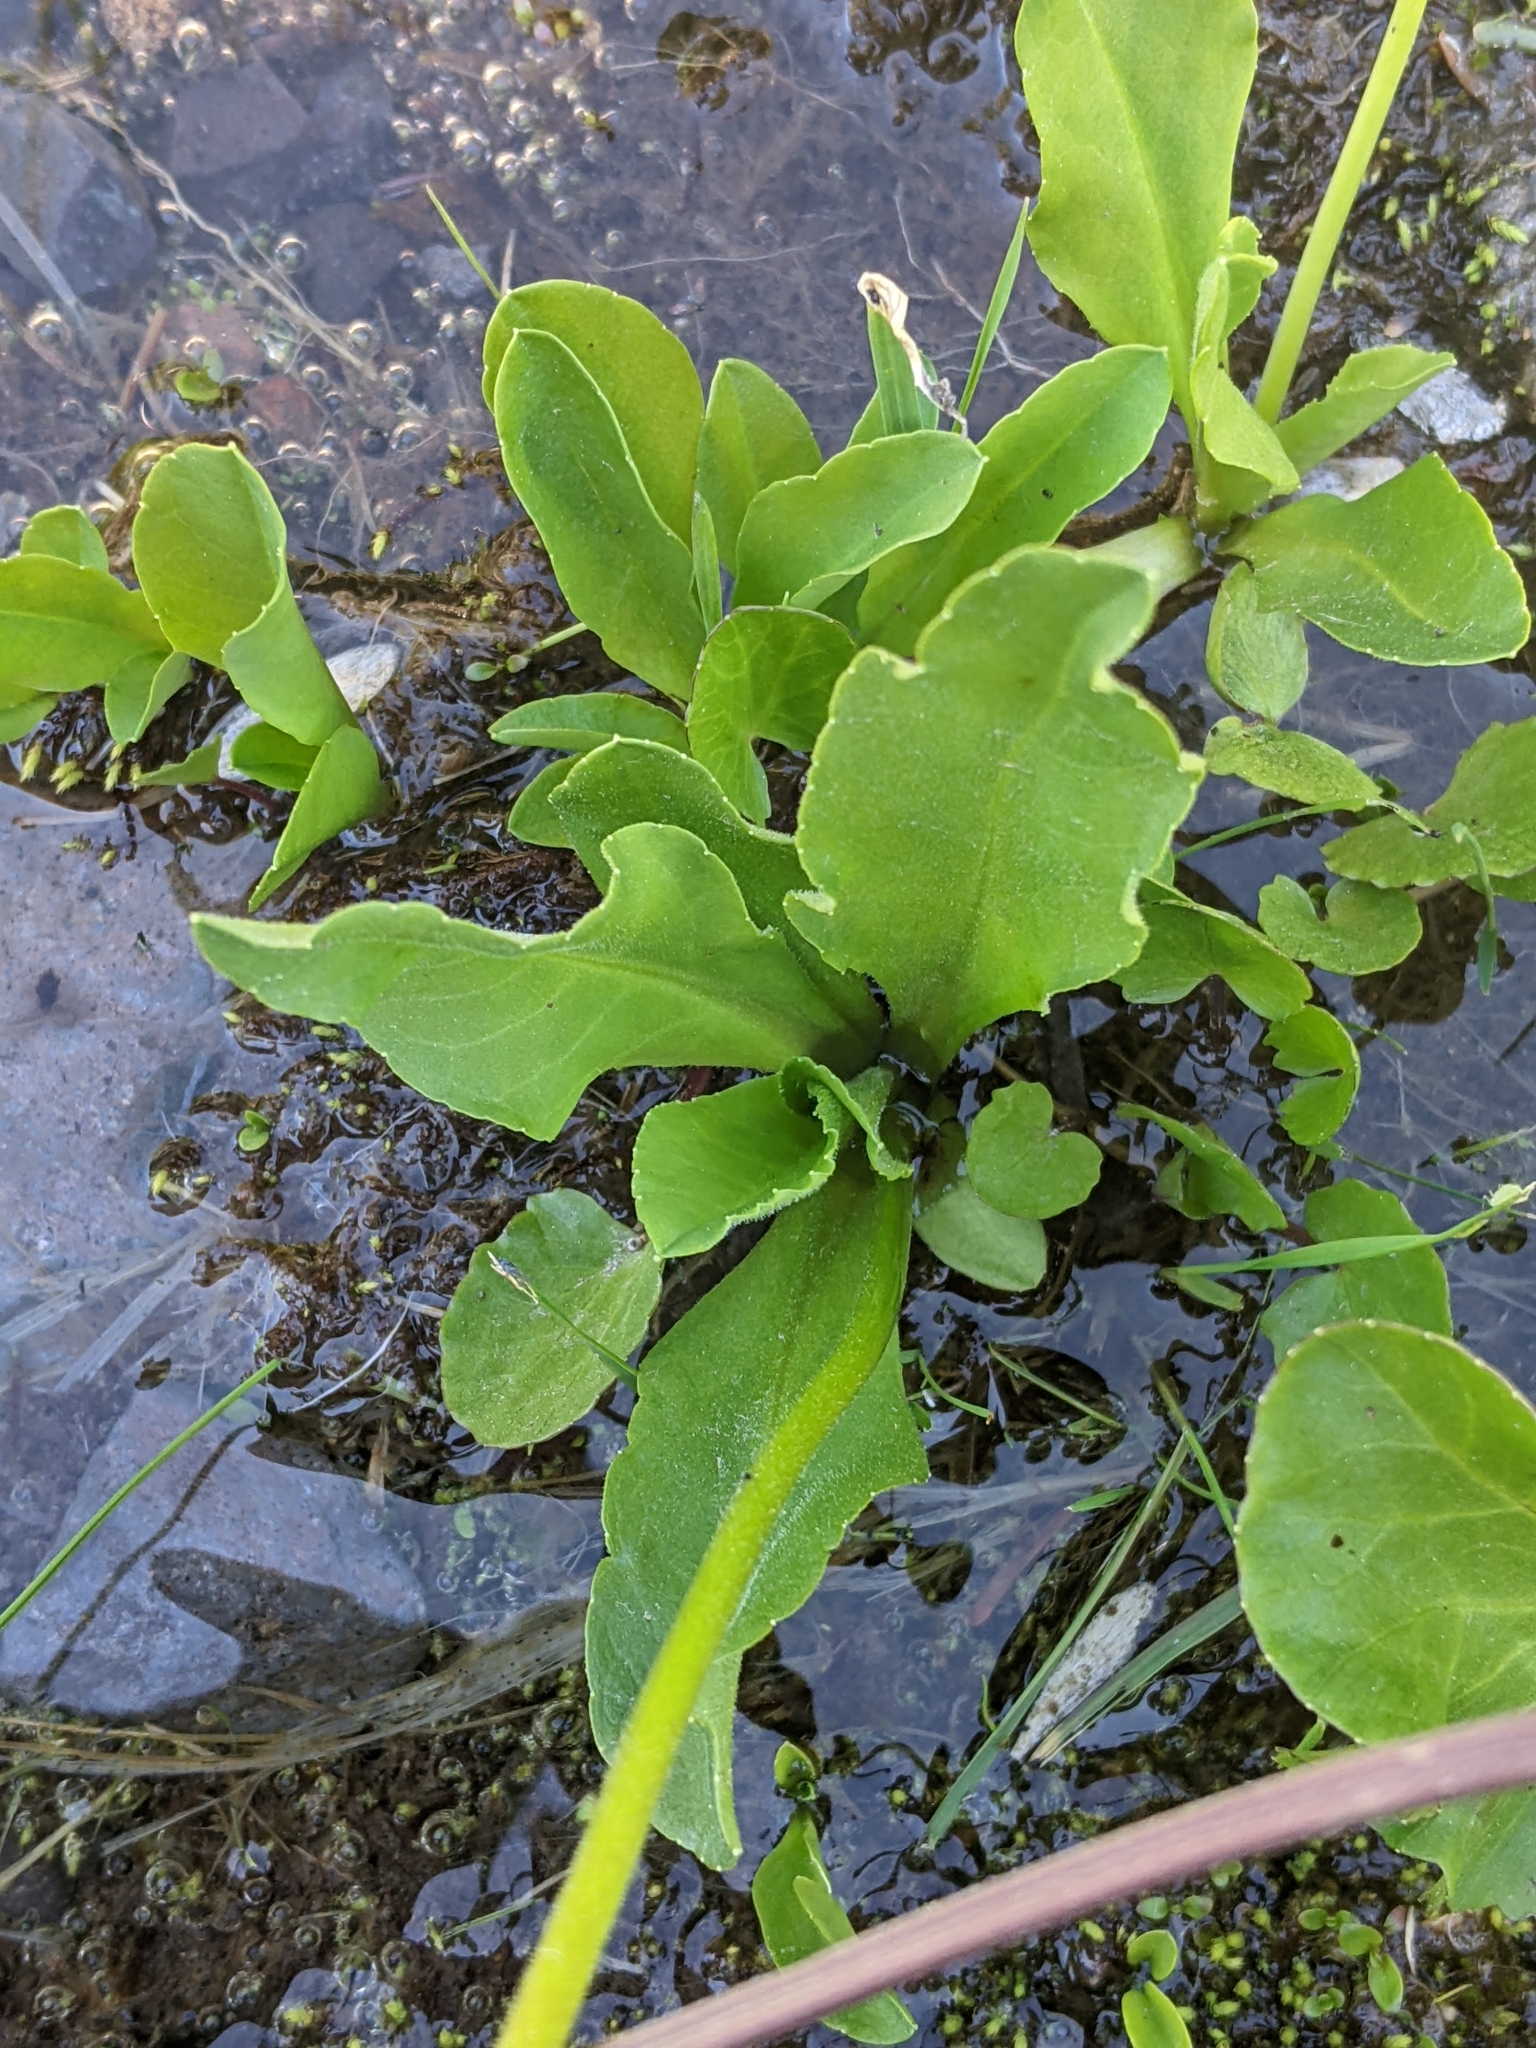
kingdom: Plantae
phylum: Tracheophyta
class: Magnoliopsida
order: Ericales
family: Primulaceae
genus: Dodecatheon
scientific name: Dodecatheon jeffreyanum
